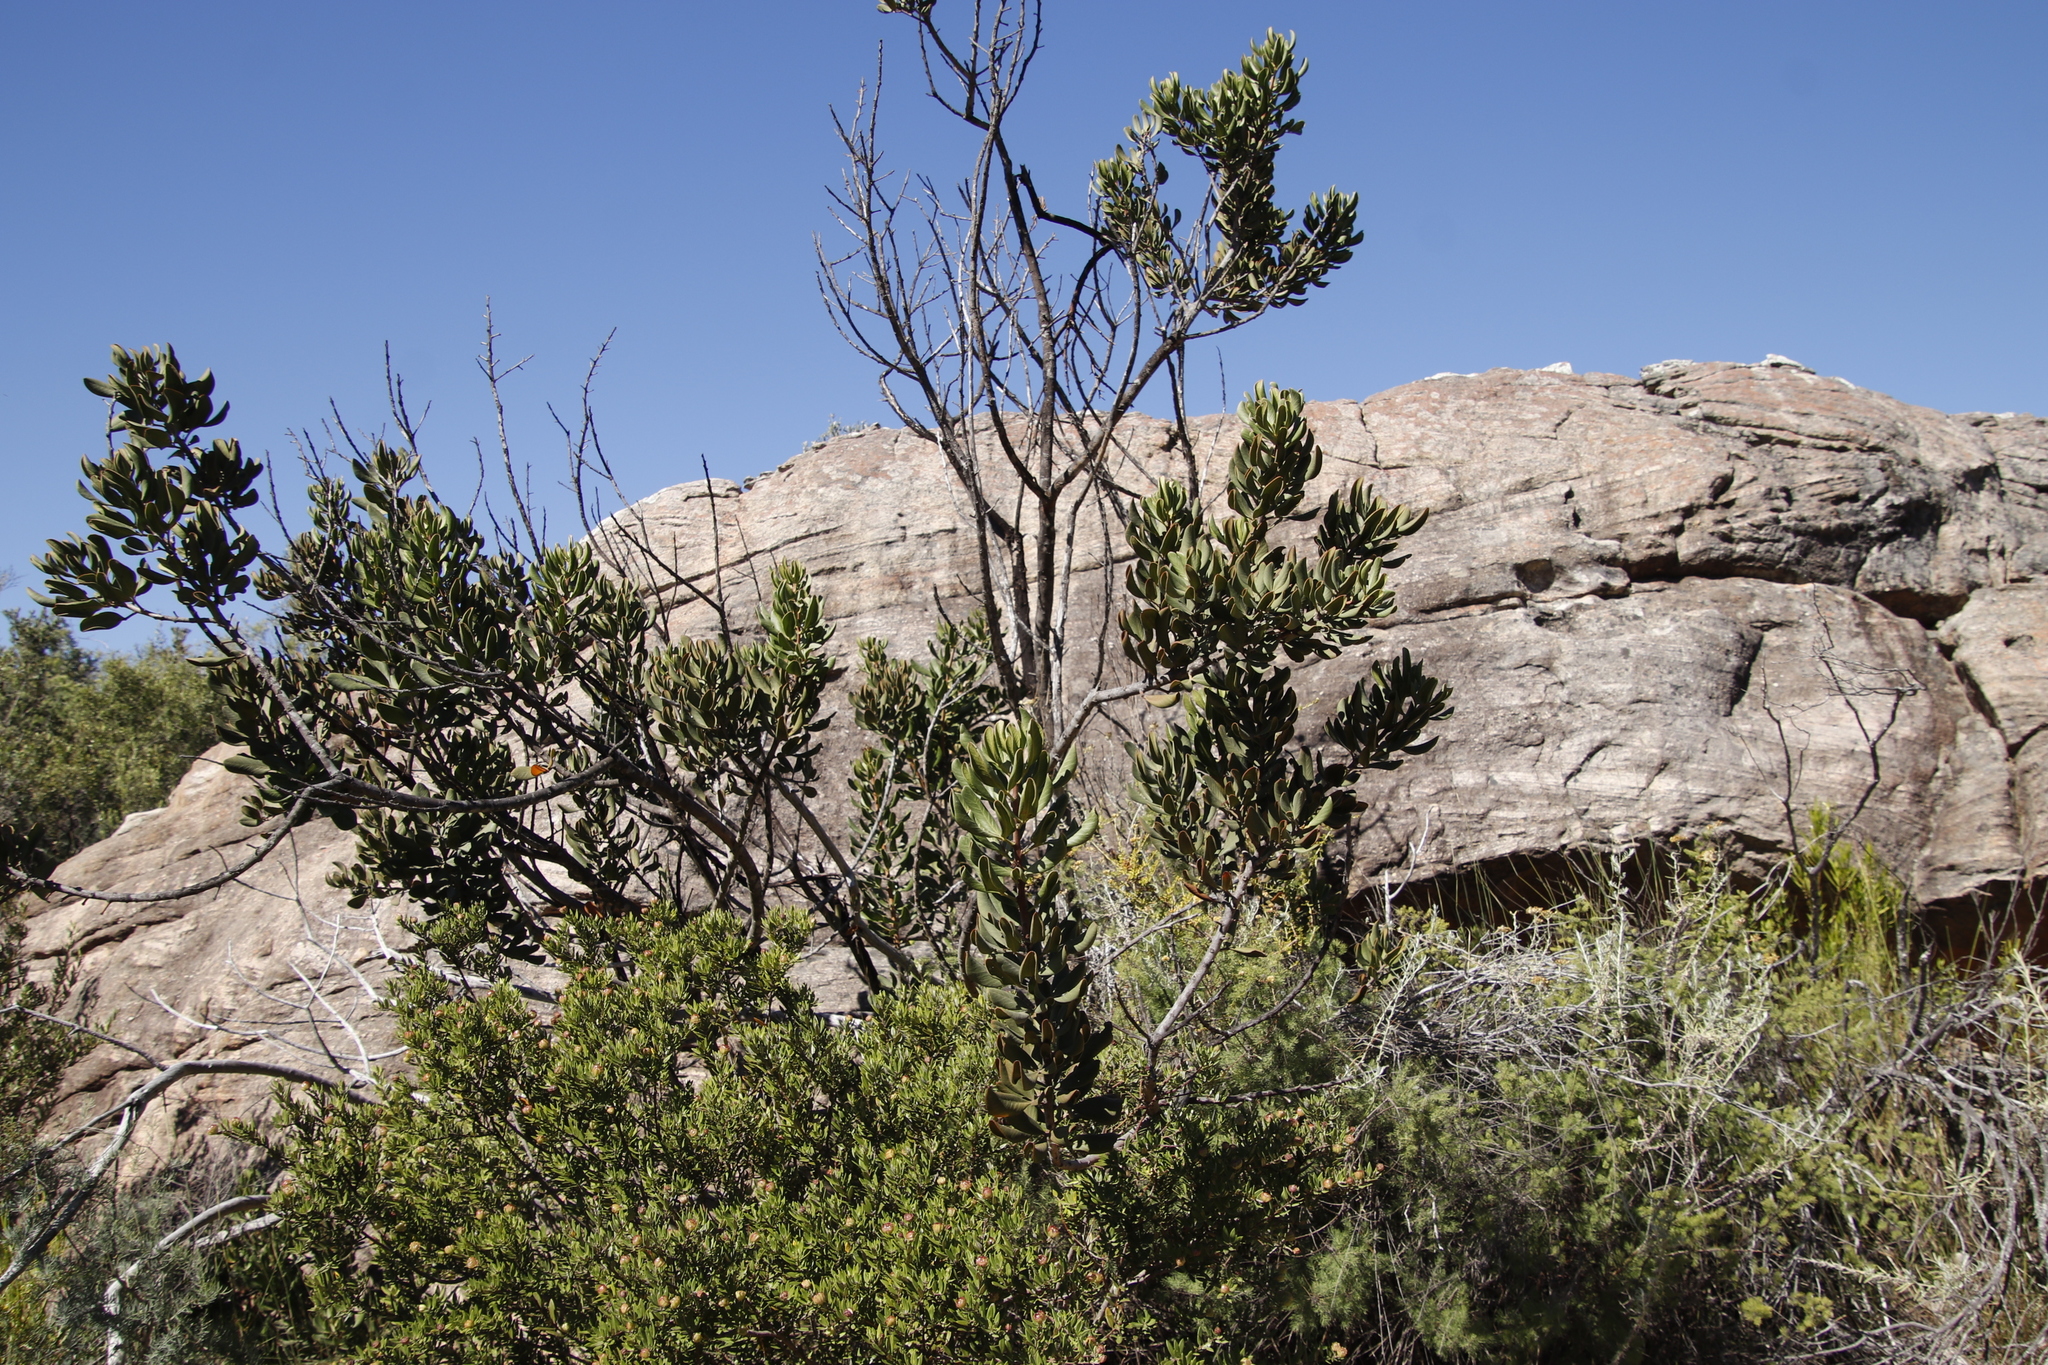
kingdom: Plantae
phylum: Tracheophyta
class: Magnoliopsida
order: Sapindales
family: Anacardiaceae
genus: Searsia
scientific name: Searsia scytophylla
